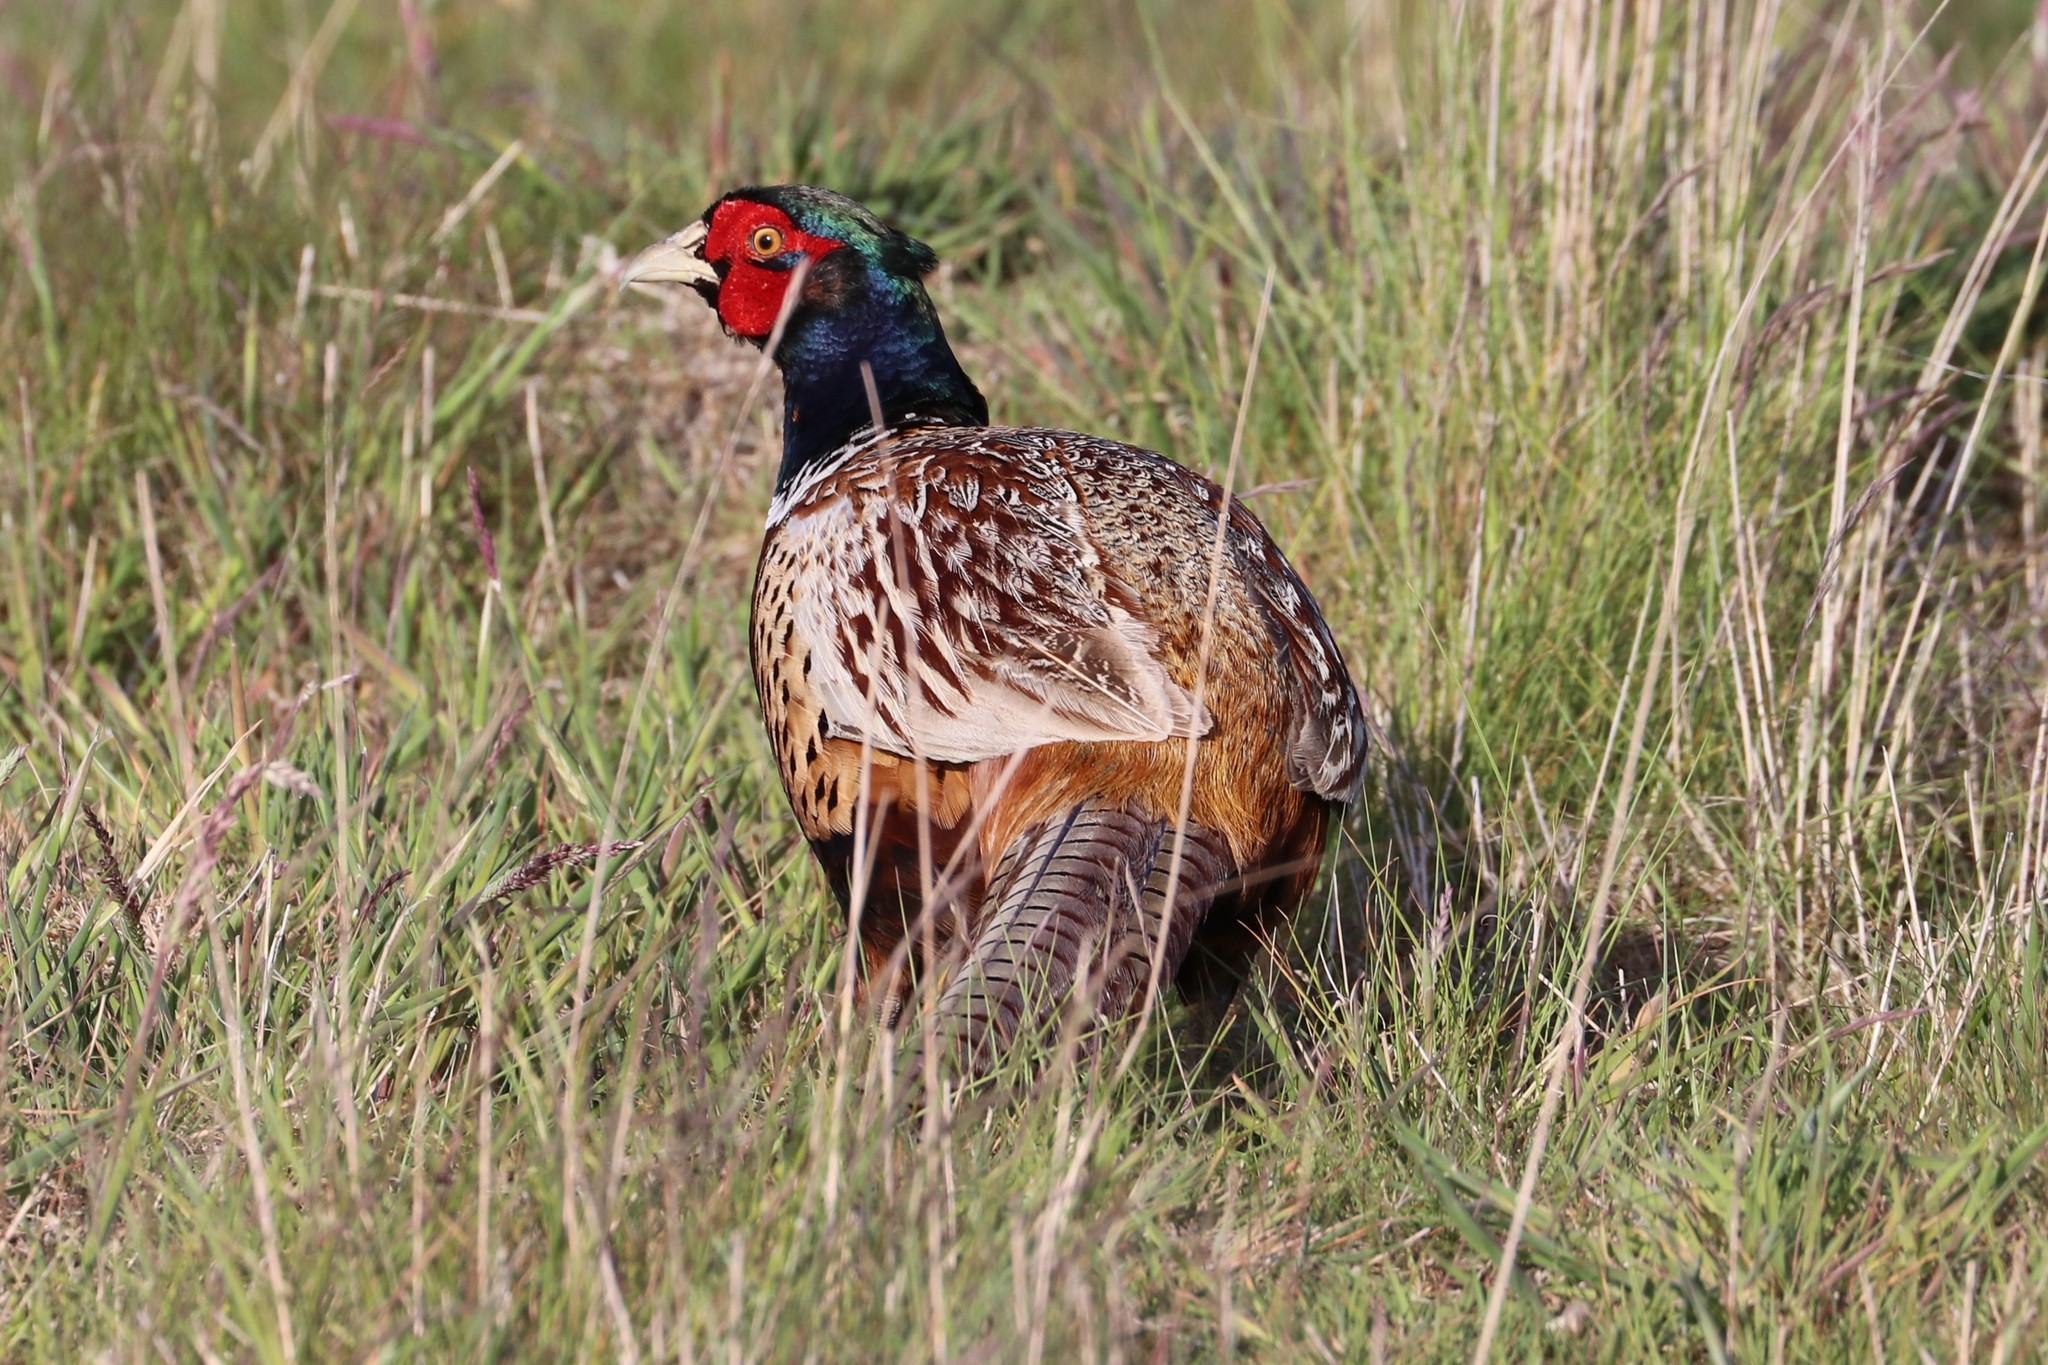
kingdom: Animalia
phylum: Chordata
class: Aves
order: Galliformes
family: Phasianidae
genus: Phasianus
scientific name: Phasianus colchicus
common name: Common pheasant
